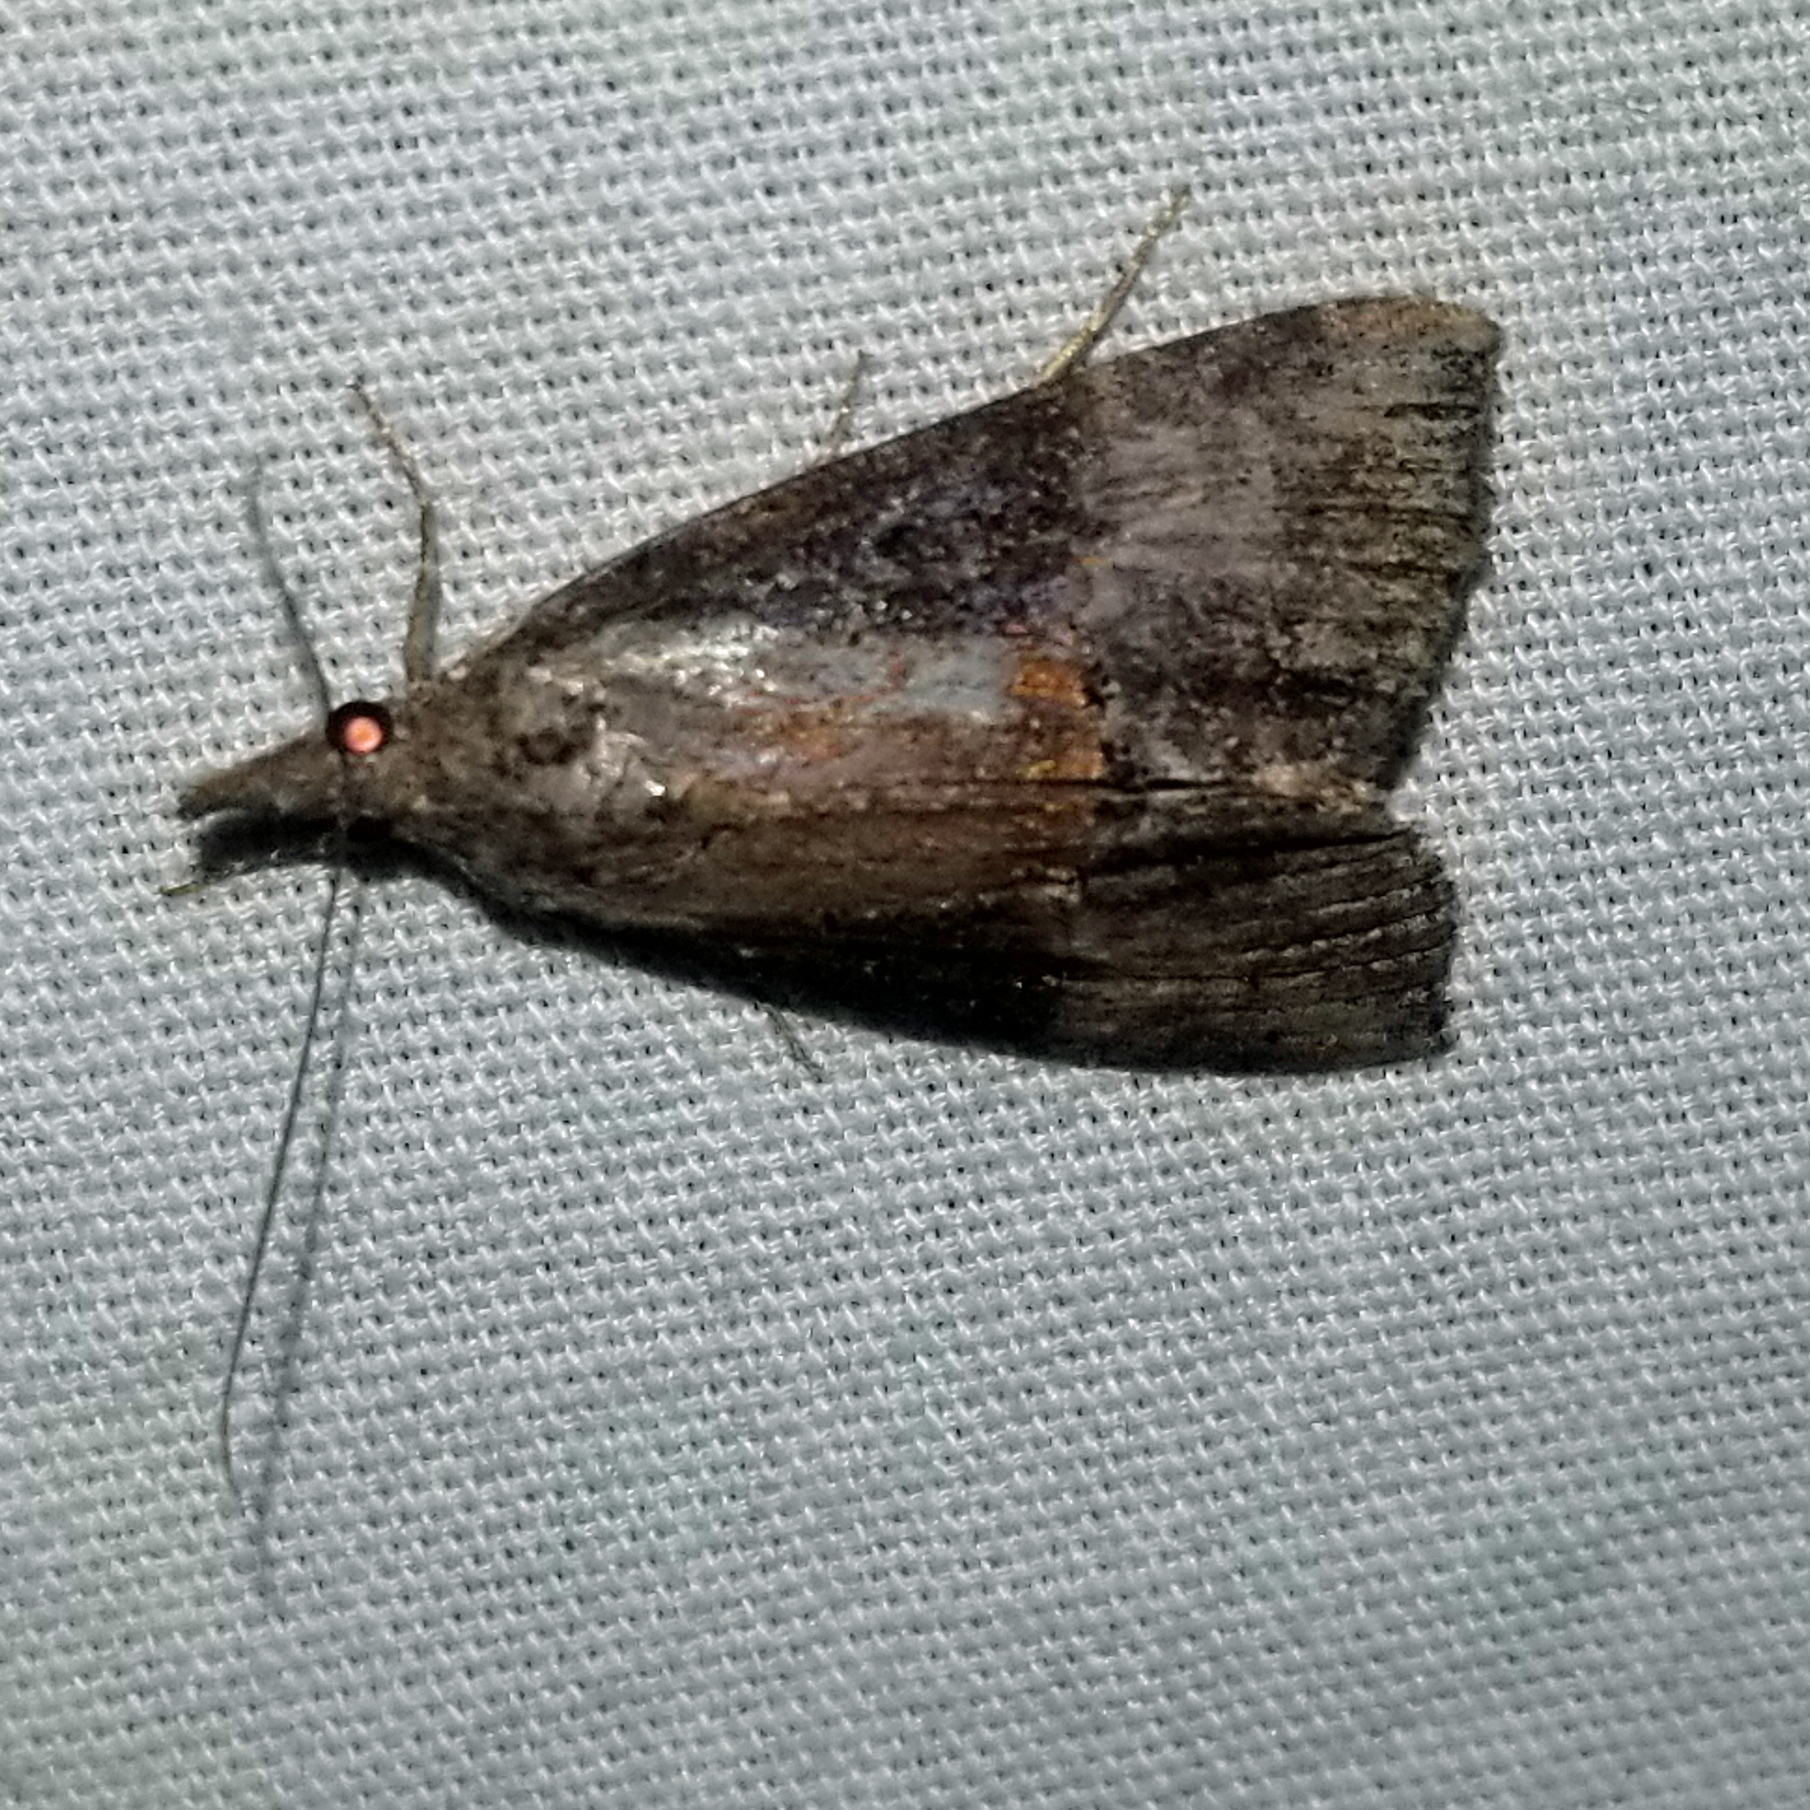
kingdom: Animalia
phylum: Arthropoda
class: Insecta
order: Lepidoptera
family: Erebidae
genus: Hypena
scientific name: Hypena scabra
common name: Green cloverworm
